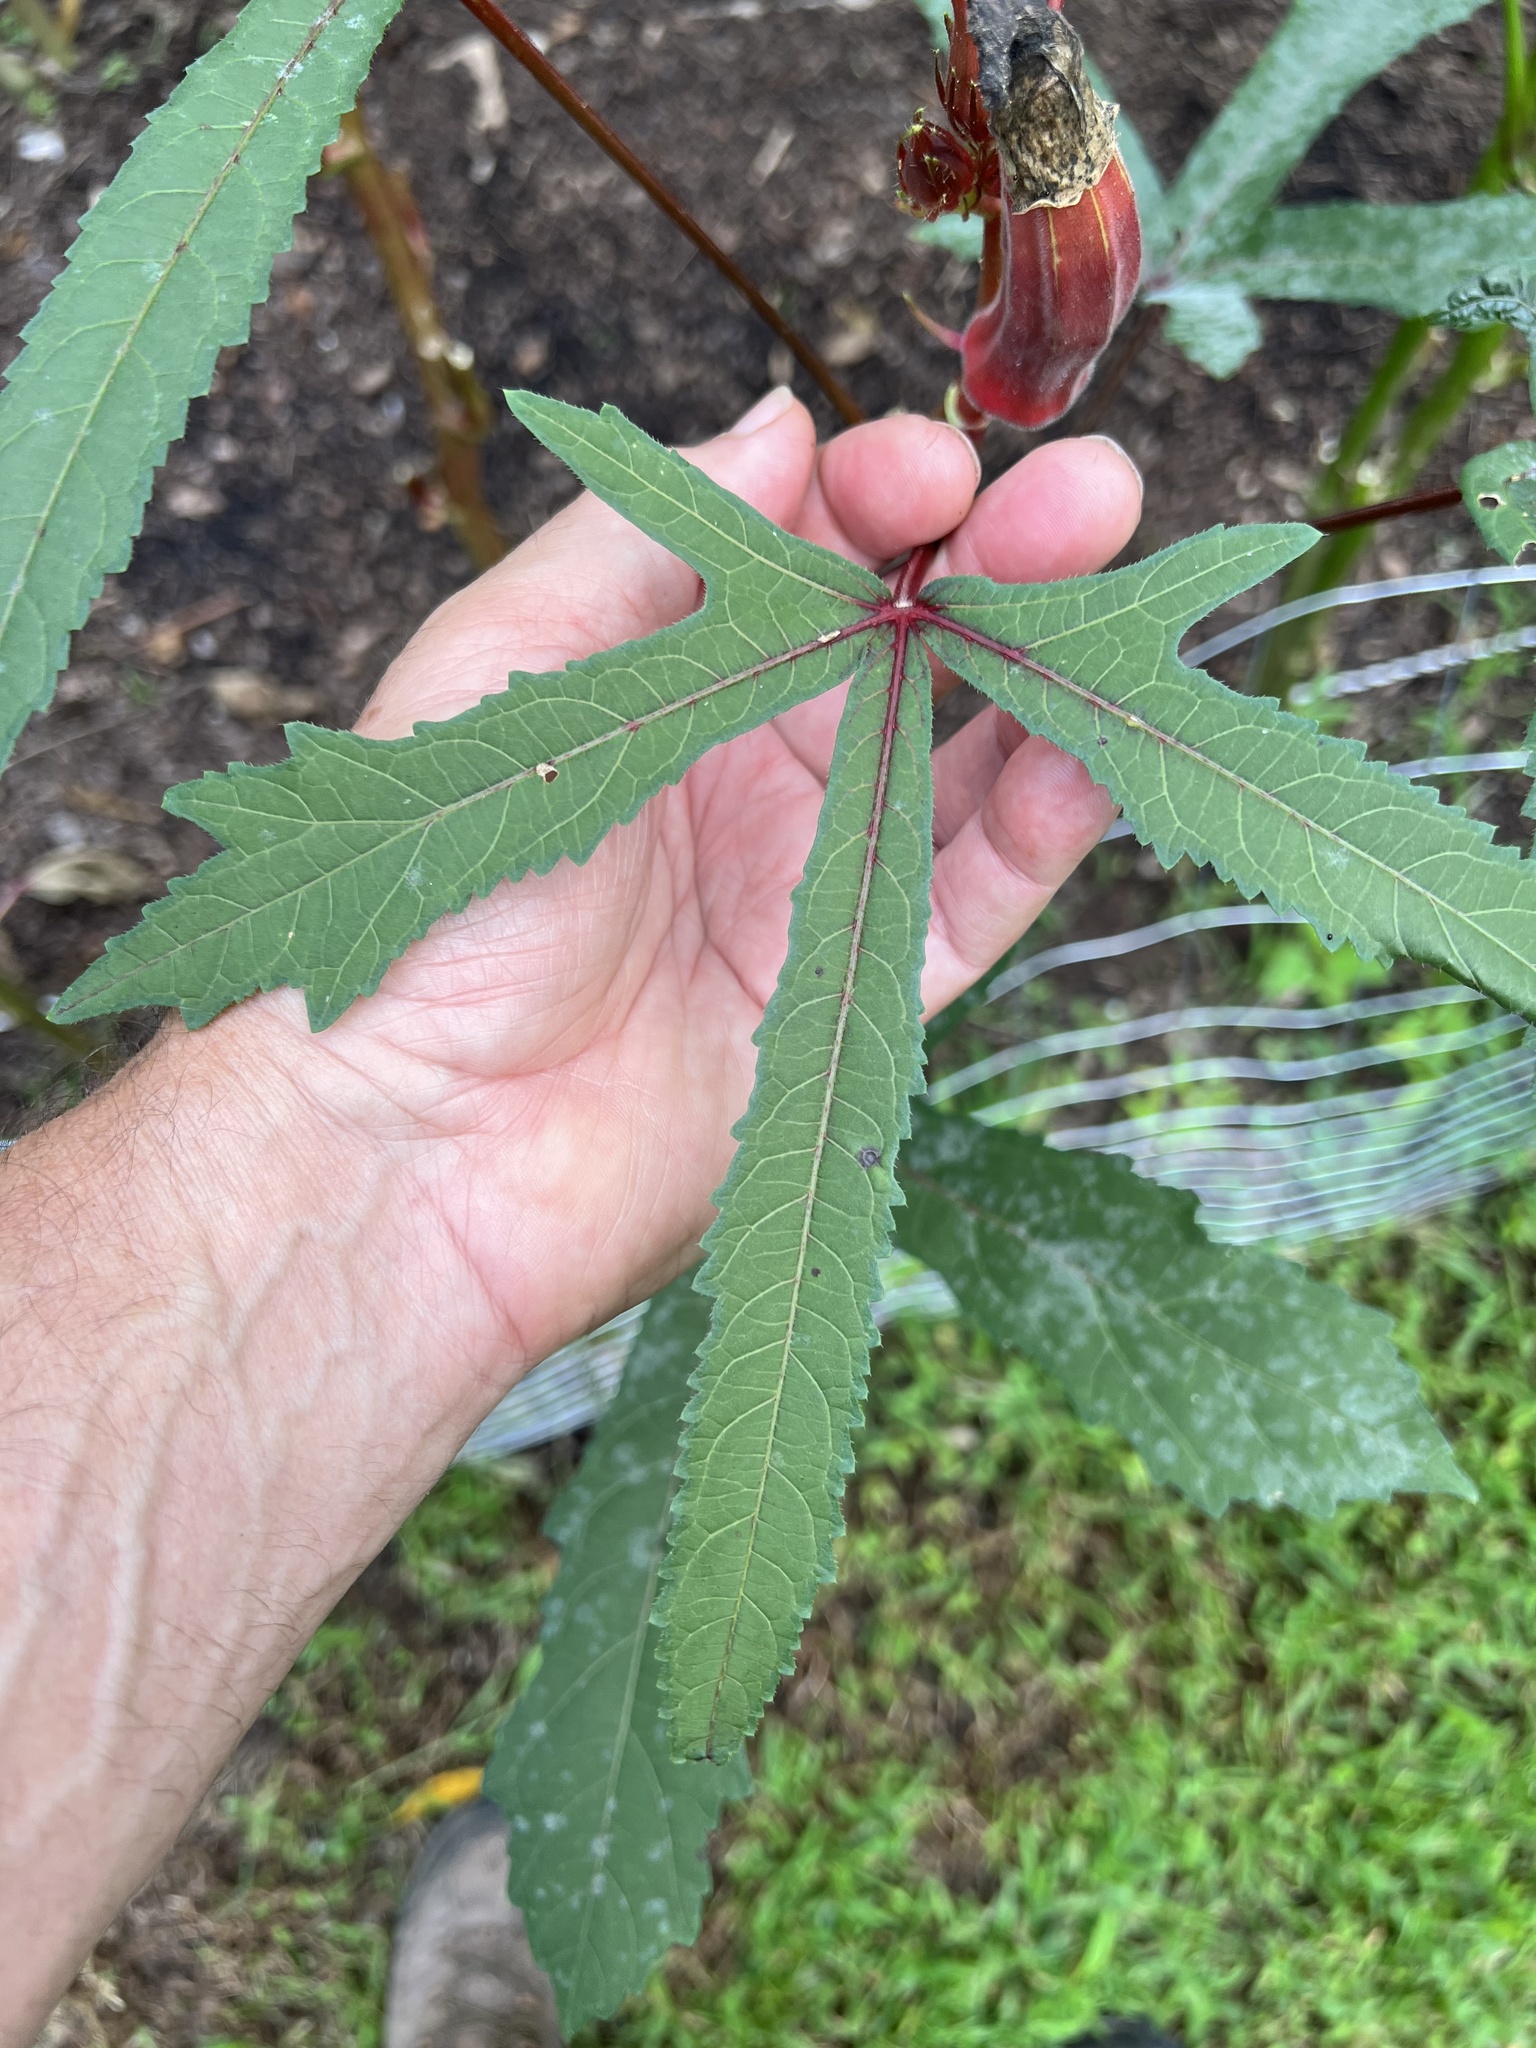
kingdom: Fungi
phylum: Ascomycota
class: Leotiomycetes
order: Helotiales
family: Erysiphaceae
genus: Fibroidium
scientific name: Fibroidium abelmoschi
